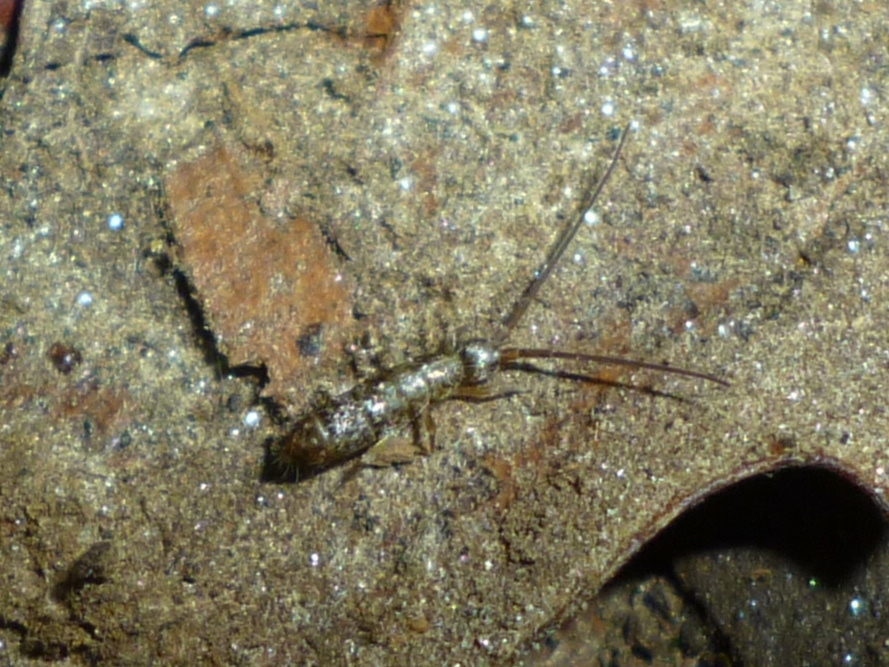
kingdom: Animalia
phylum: Arthropoda
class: Collembola
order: Entomobryomorpha
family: Tomoceridae
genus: Pogonognathellus
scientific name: Pogonognathellus dubius
